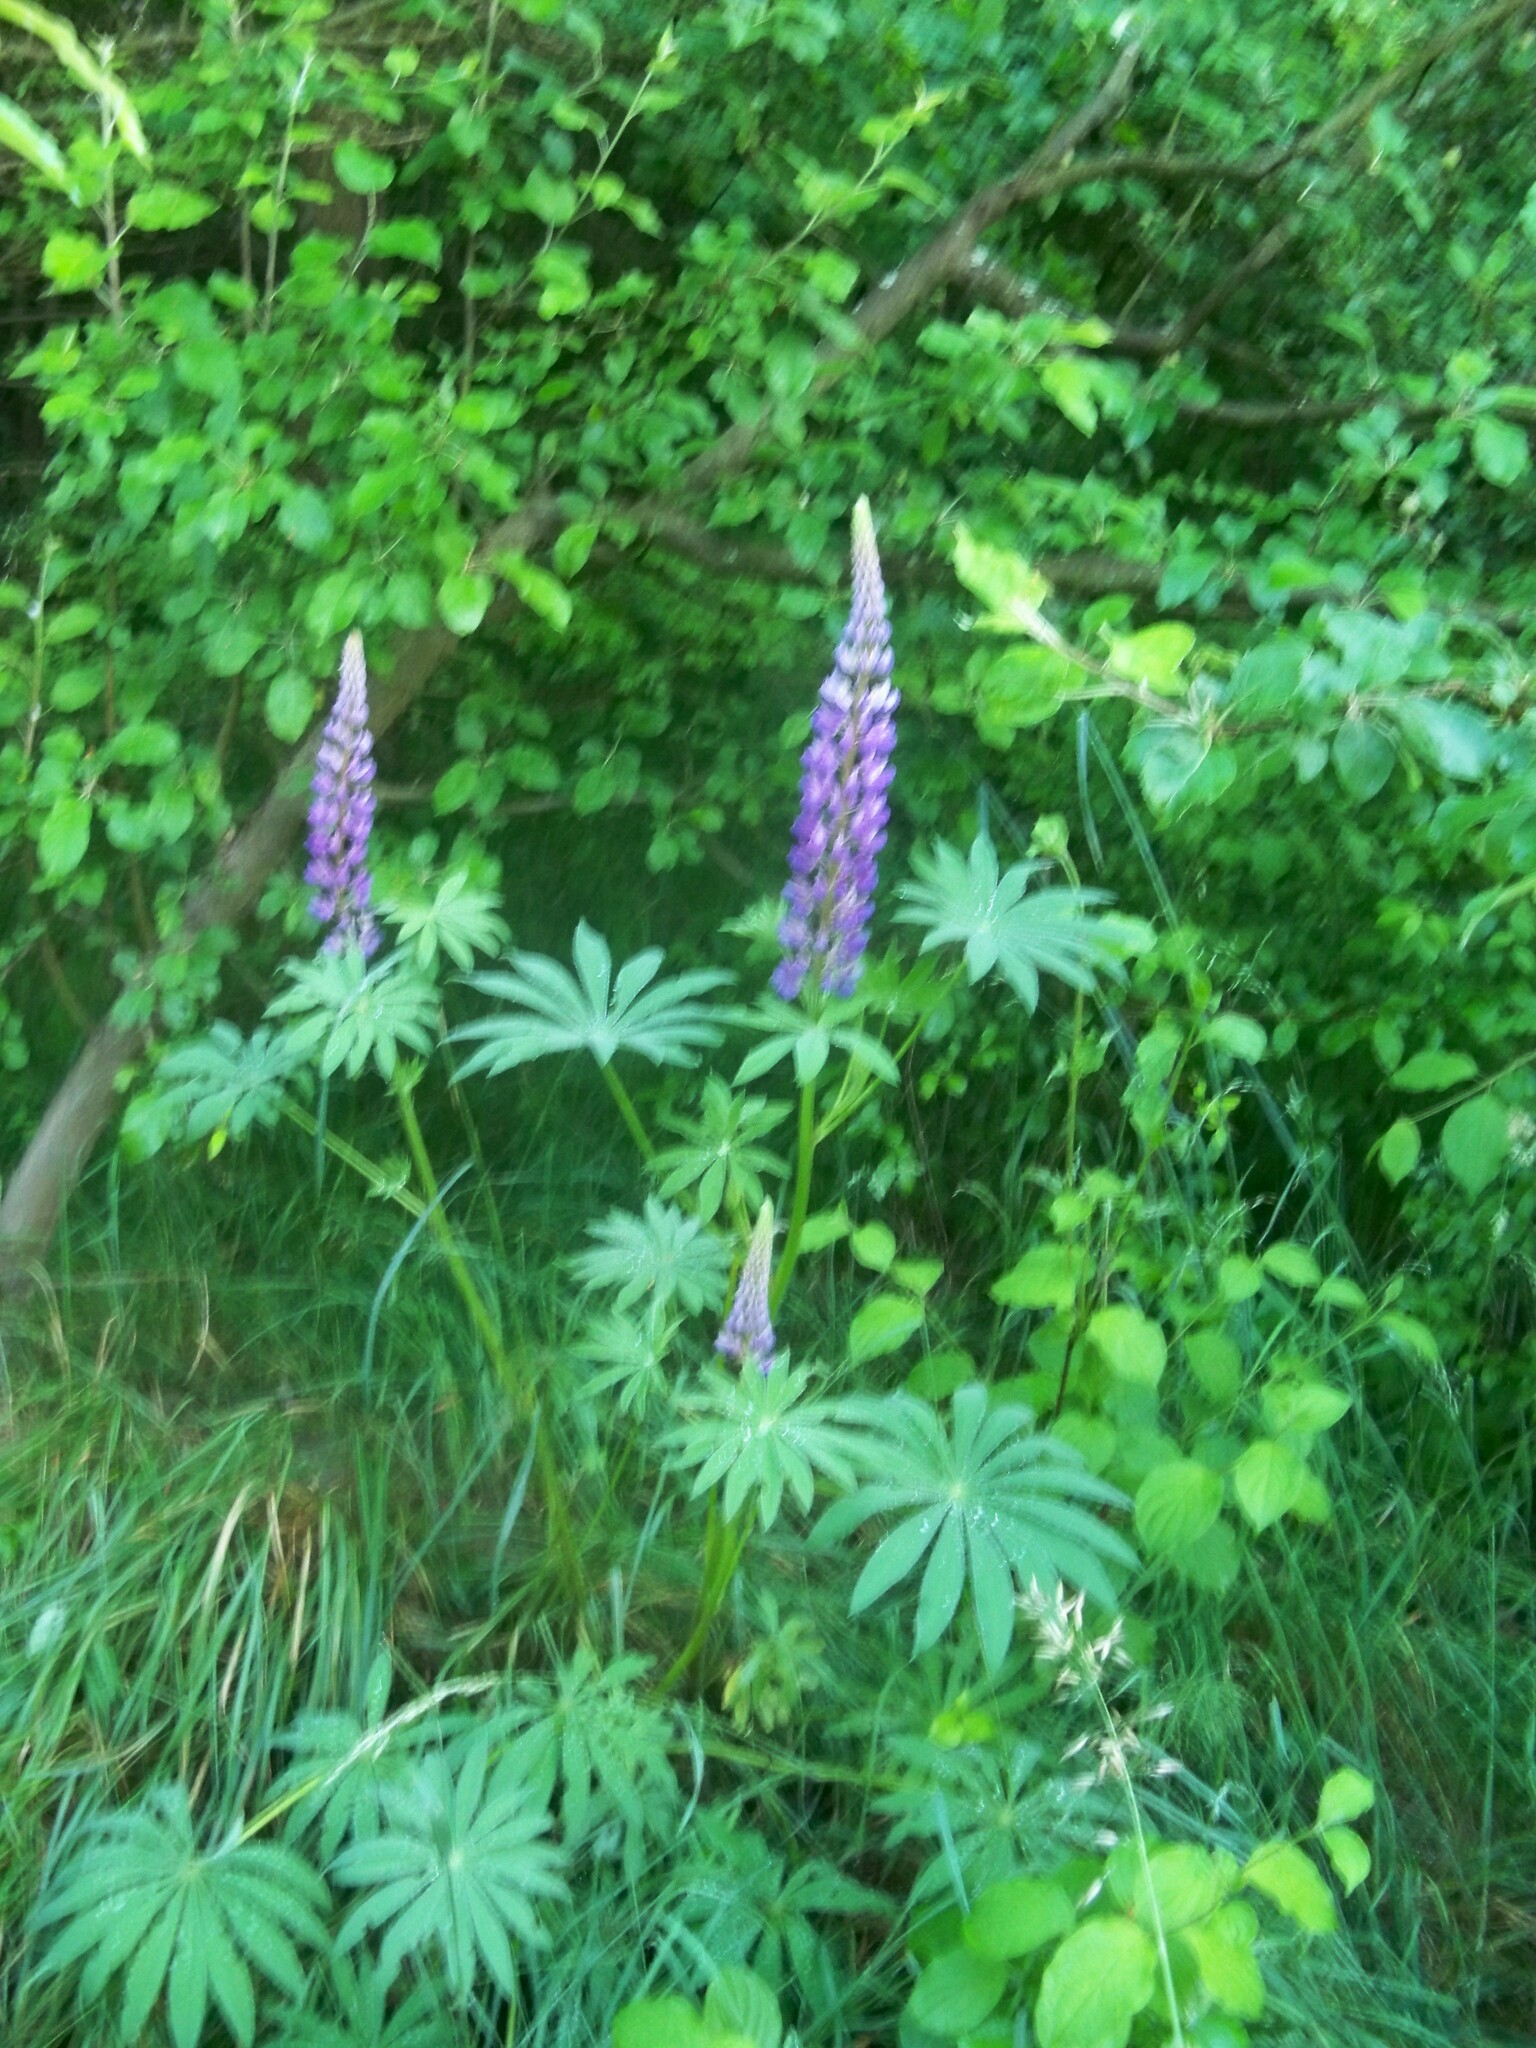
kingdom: Plantae
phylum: Tracheophyta
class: Magnoliopsida
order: Fabales
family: Fabaceae
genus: Lupinus
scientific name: Lupinus polyphyllus
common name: Garden lupin
